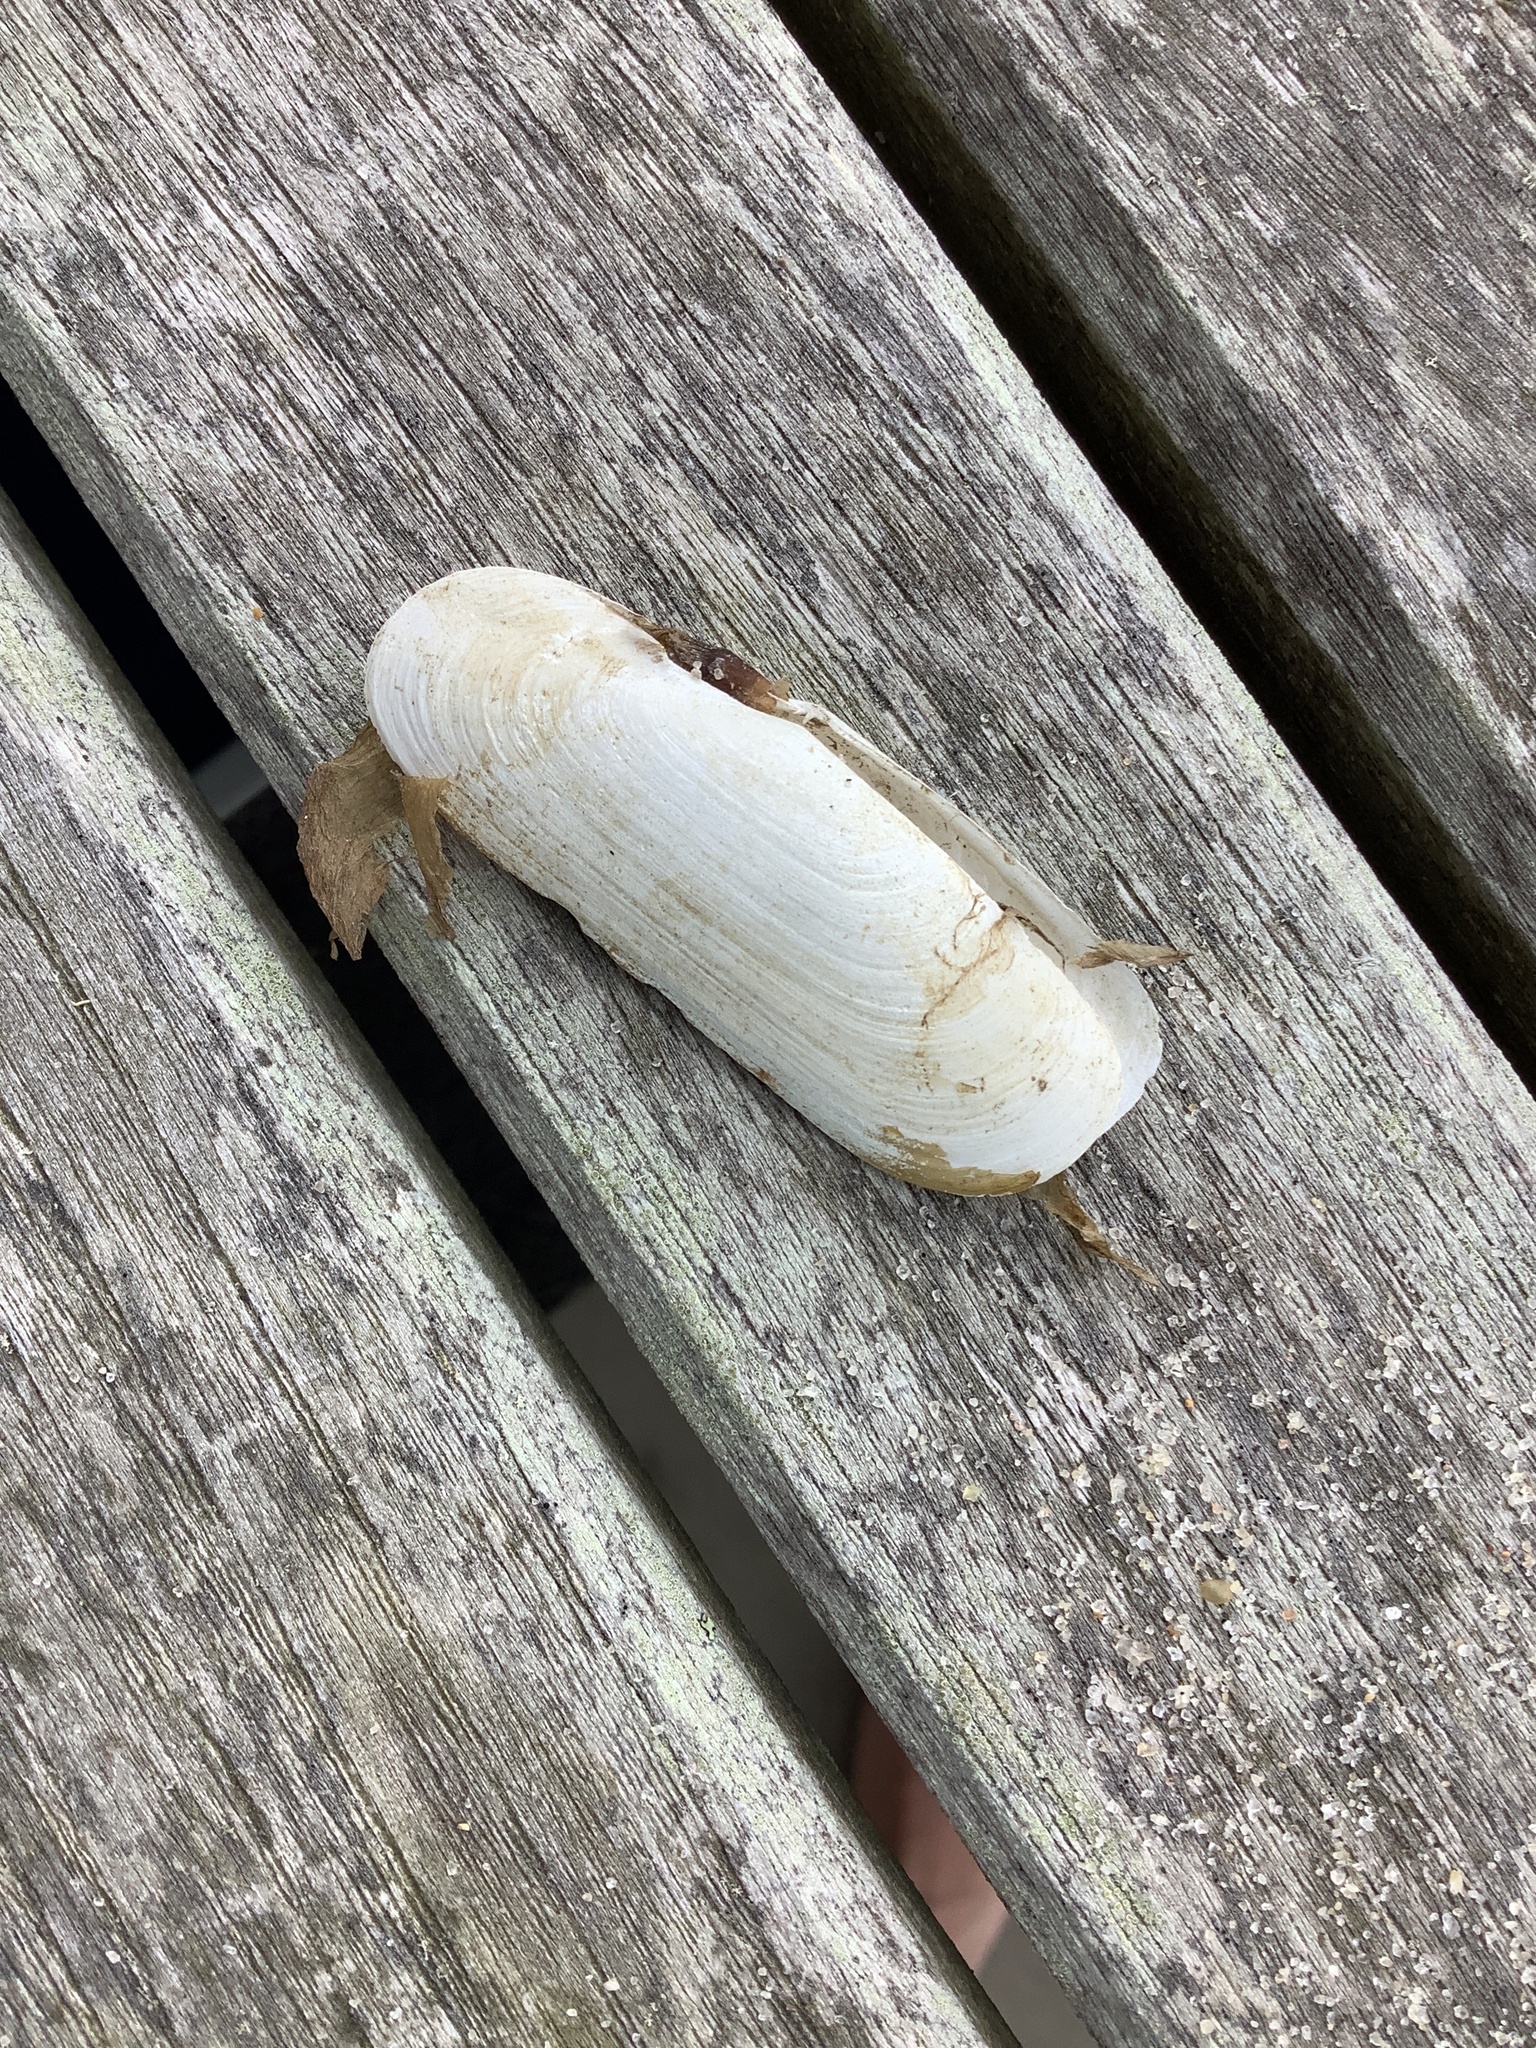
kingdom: Animalia
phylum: Mollusca
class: Bivalvia
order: Cardiida
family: Solecurtidae
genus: Tagelus
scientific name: Tagelus plebeius
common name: Stout tagelus
